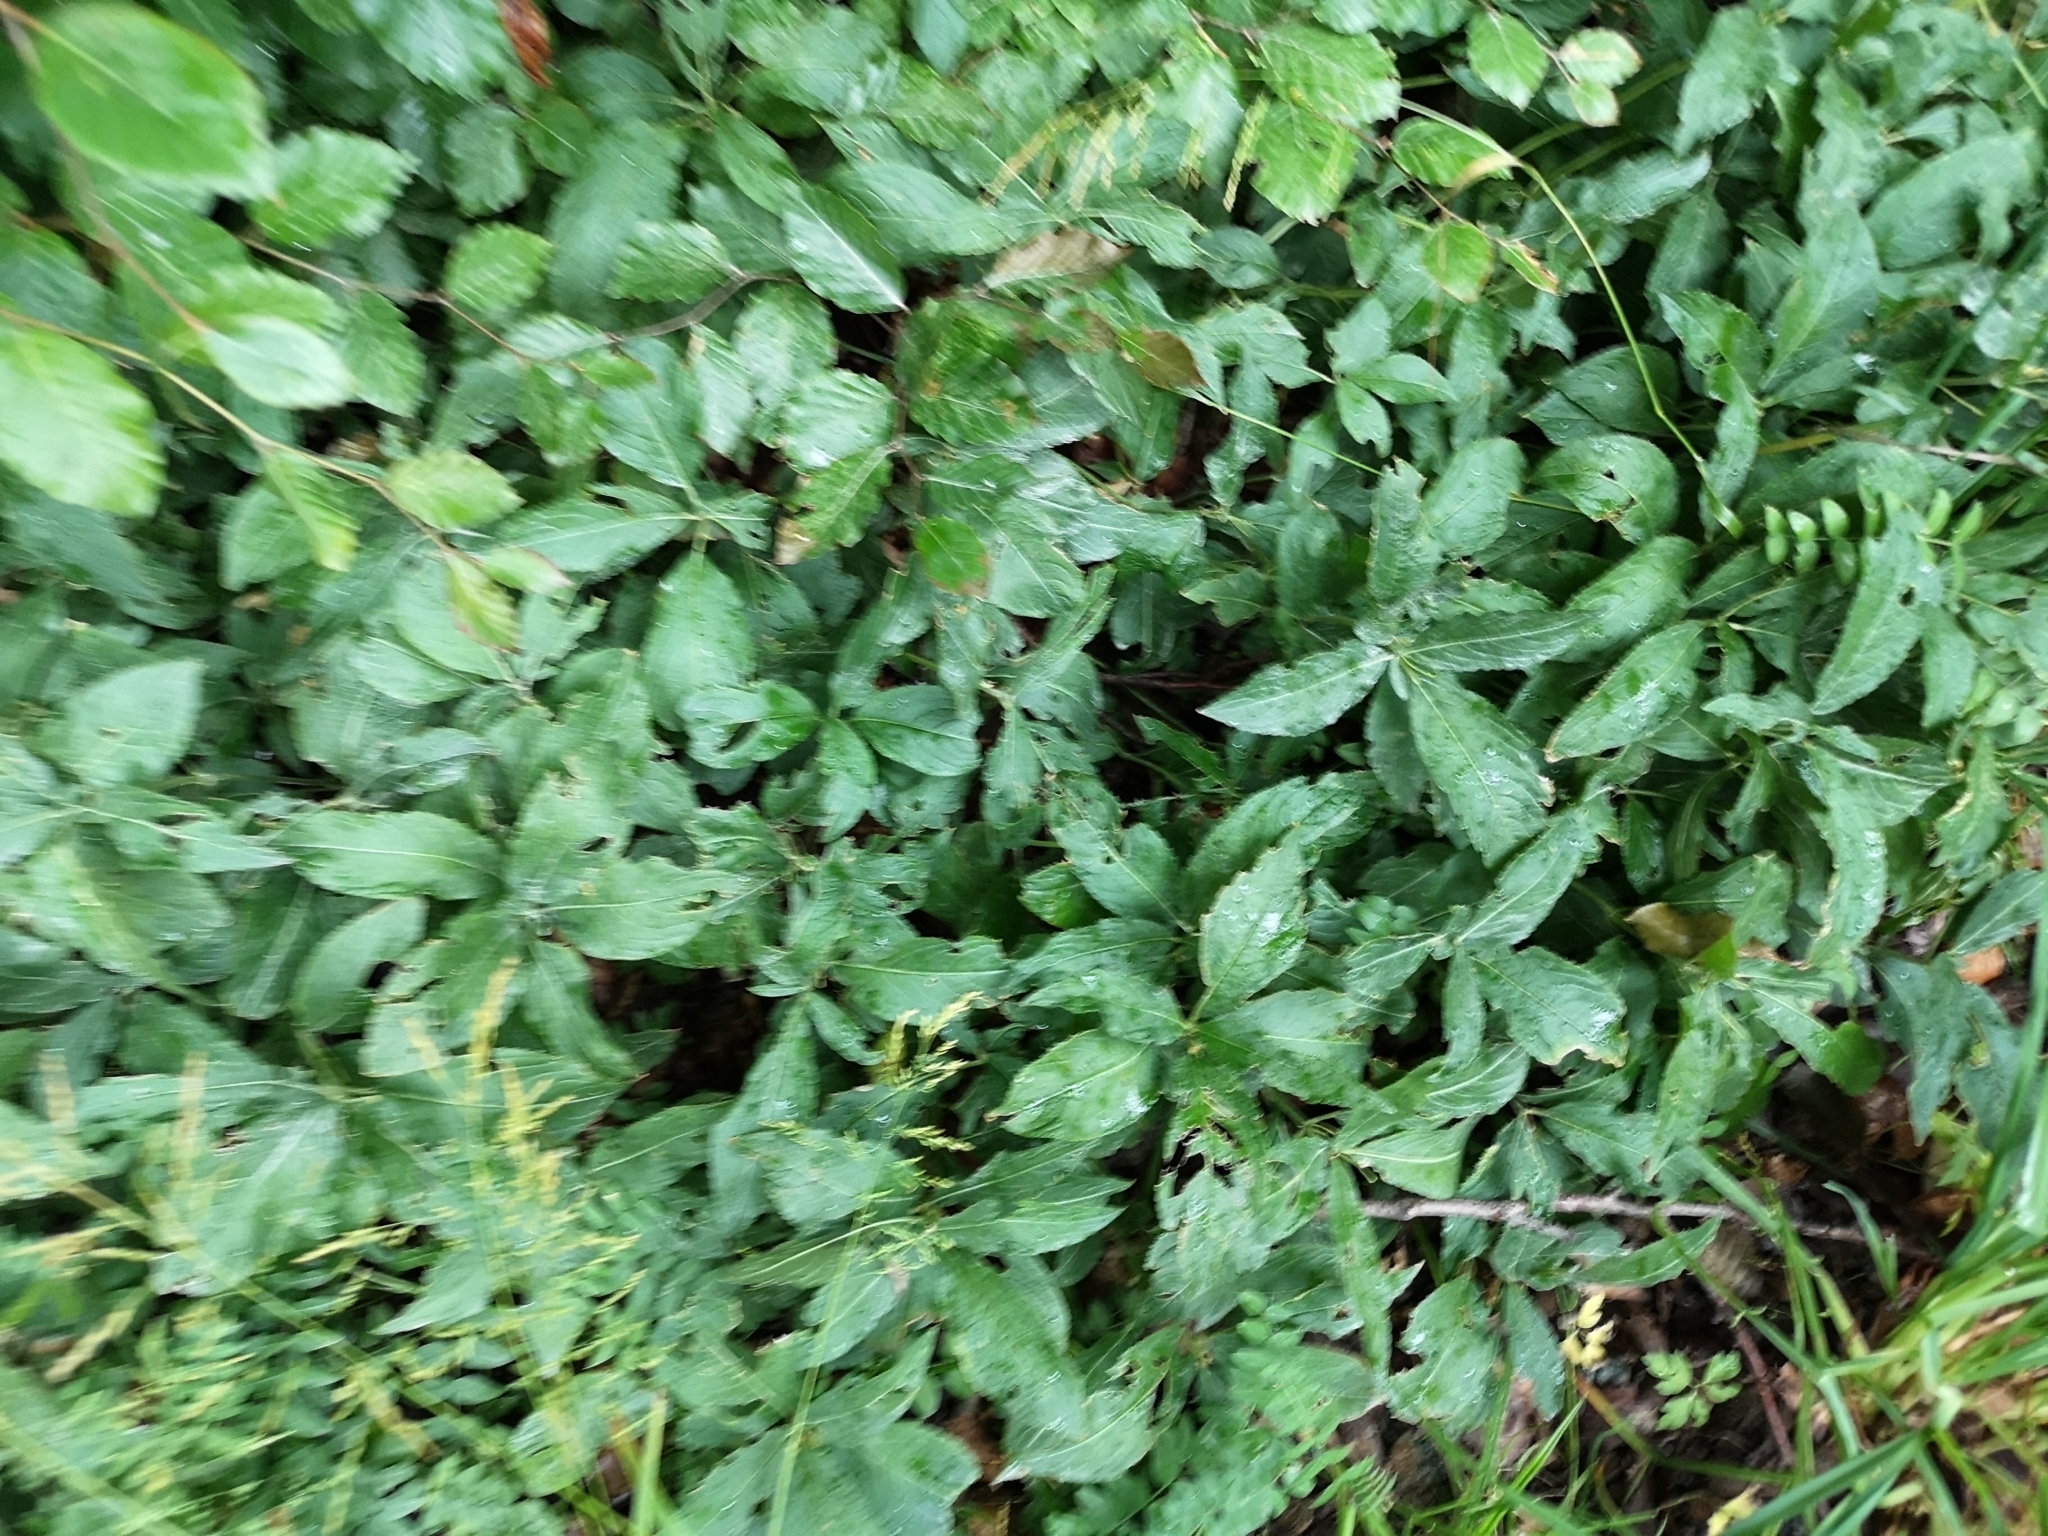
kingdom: Plantae
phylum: Tracheophyta
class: Magnoliopsida
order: Malpighiales
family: Euphorbiaceae
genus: Mercurialis
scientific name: Mercurialis perennis
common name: Dog mercury
